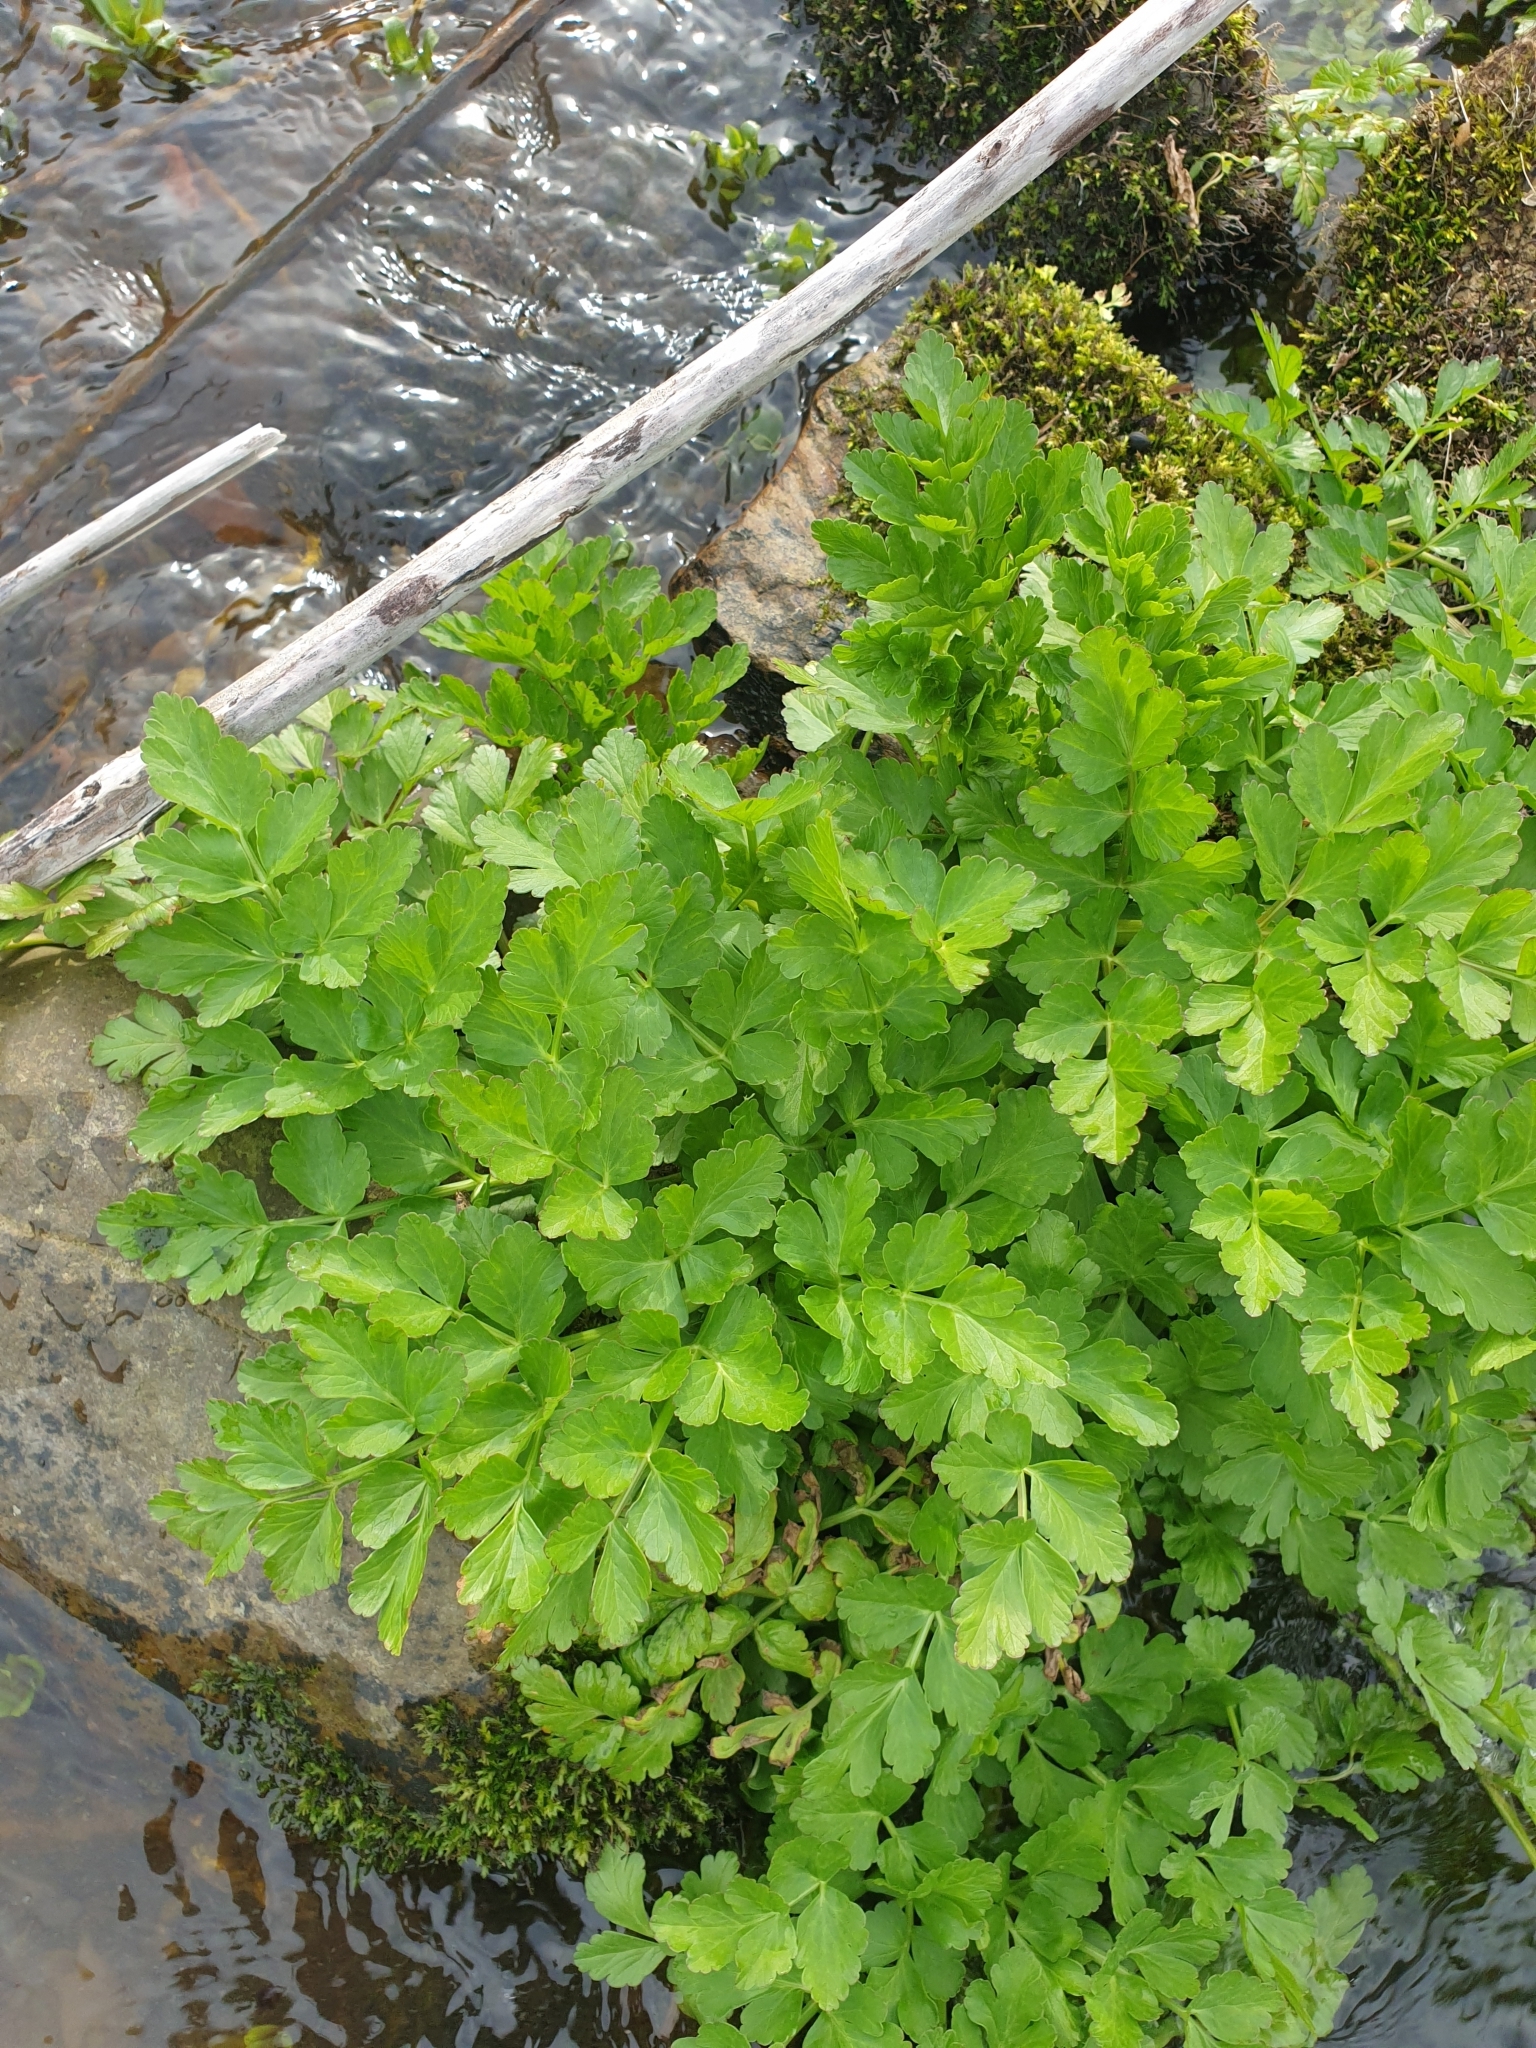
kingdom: Plantae
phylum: Tracheophyta
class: Magnoliopsida
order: Apiales
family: Apiaceae
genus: Oenanthe
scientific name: Oenanthe crocata
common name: Hemlock water-dropwort
